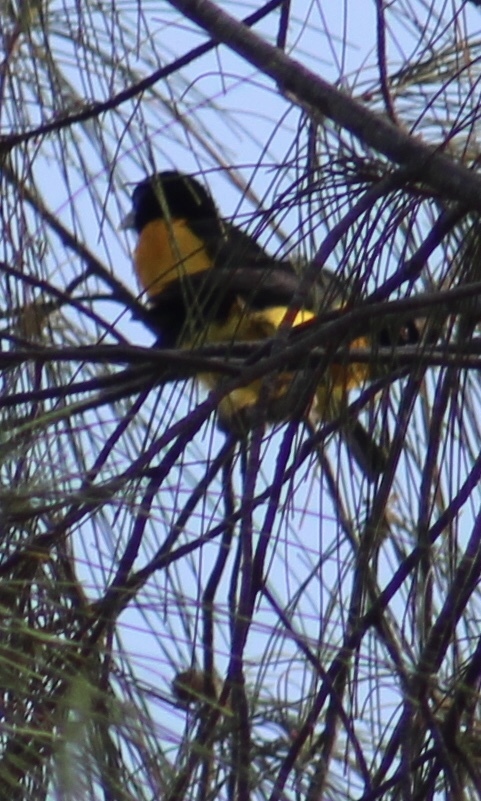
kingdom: Animalia
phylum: Chordata
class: Aves
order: Passeriformes
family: Ploceidae
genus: Ploceus
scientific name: Ploceus bicolor
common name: Dark-backed weaver
